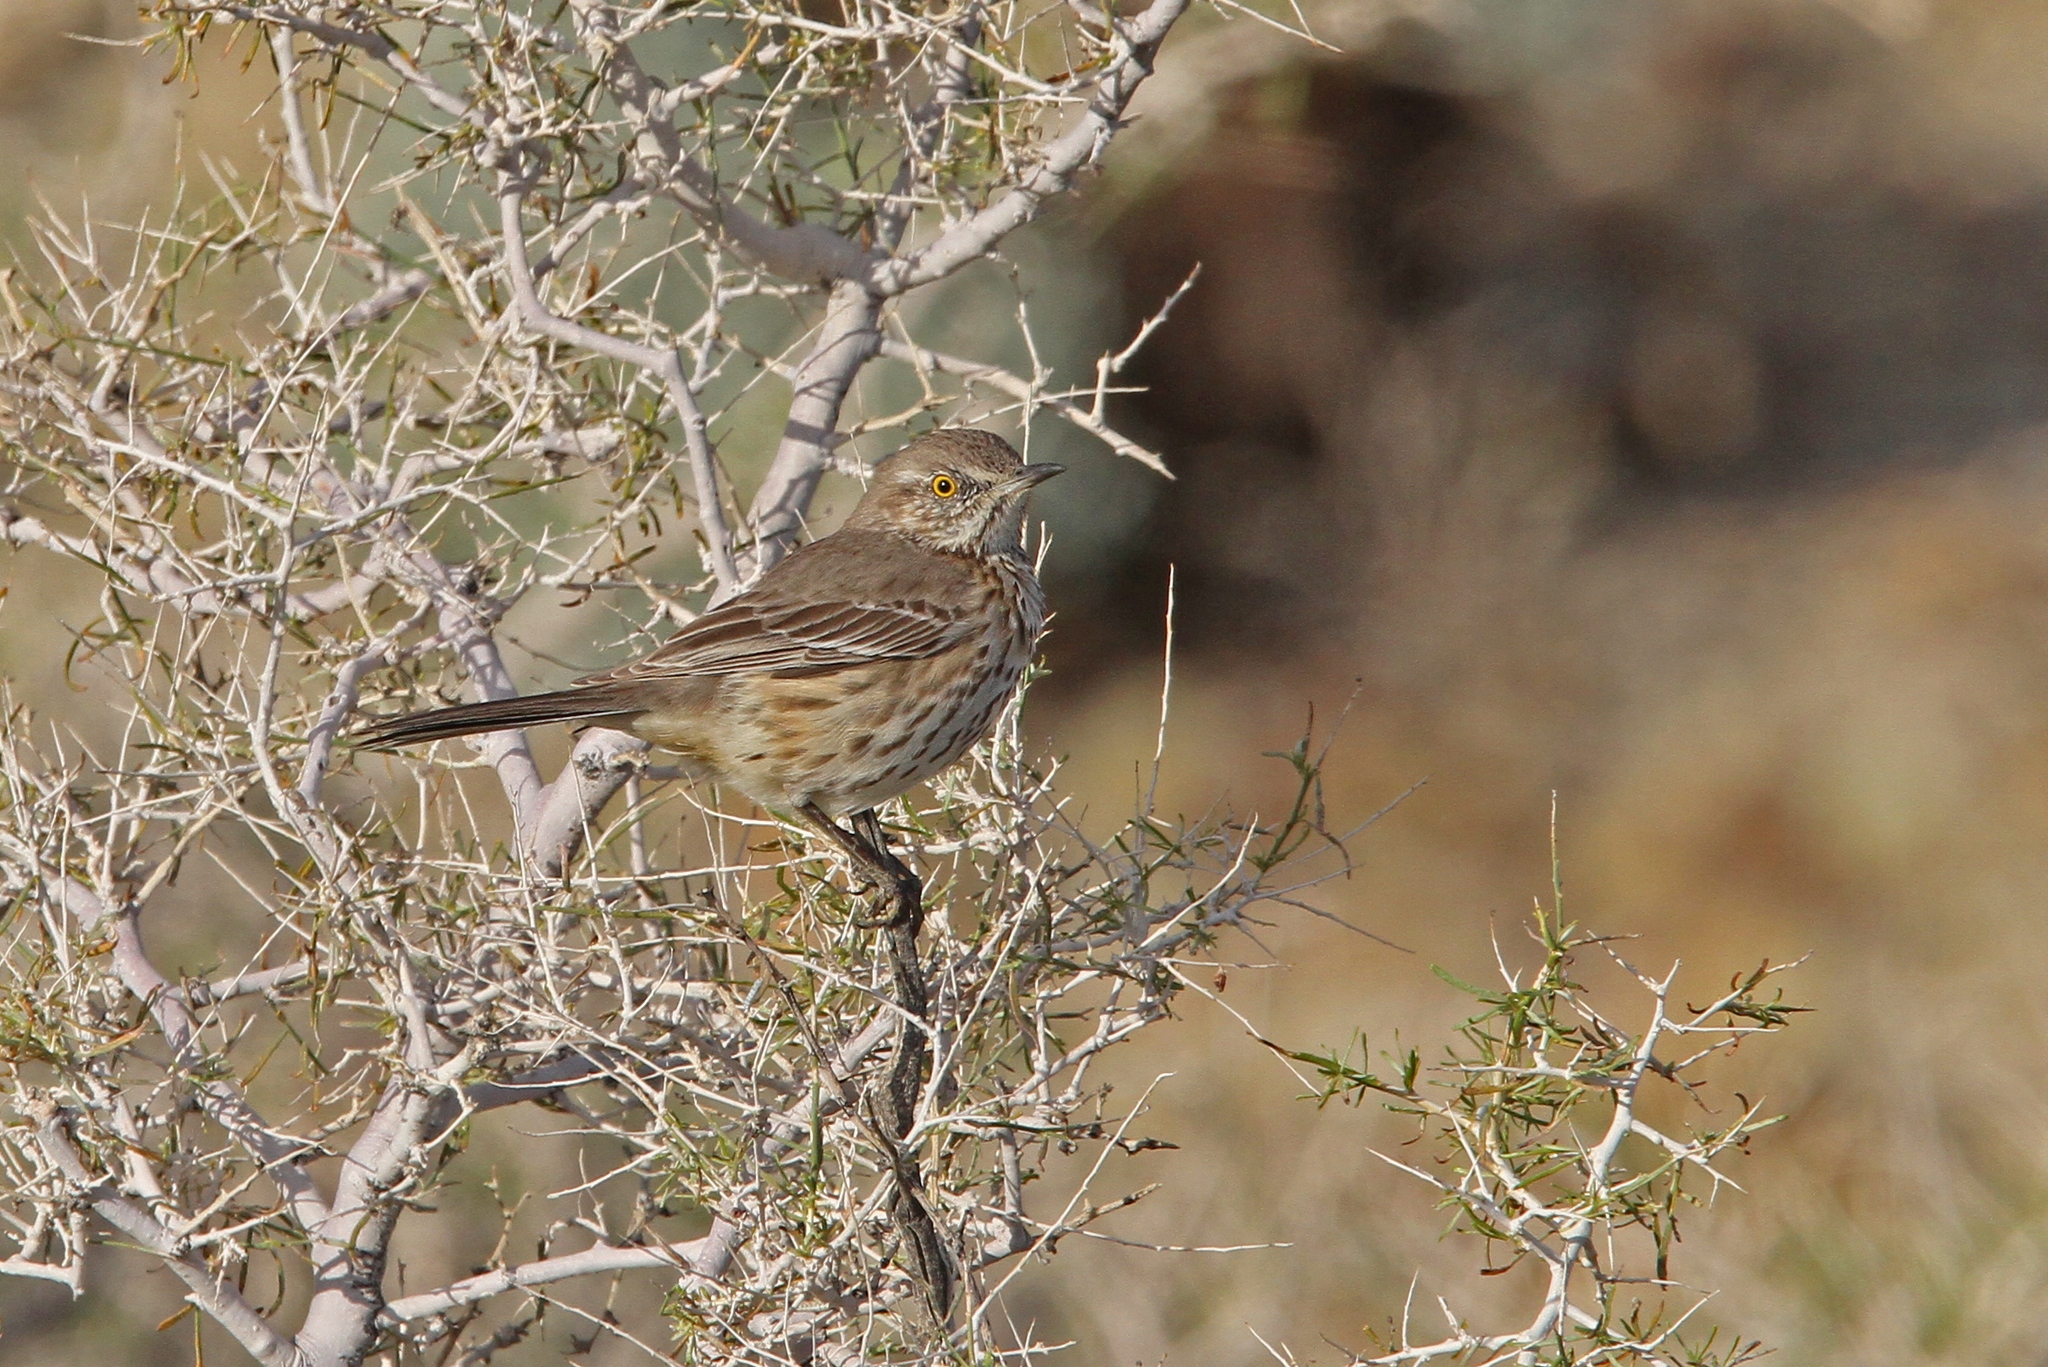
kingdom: Animalia
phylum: Chordata
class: Aves
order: Passeriformes
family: Mimidae
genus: Oreoscoptes
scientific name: Oreoscoptes montanus
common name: Sage thrasher
